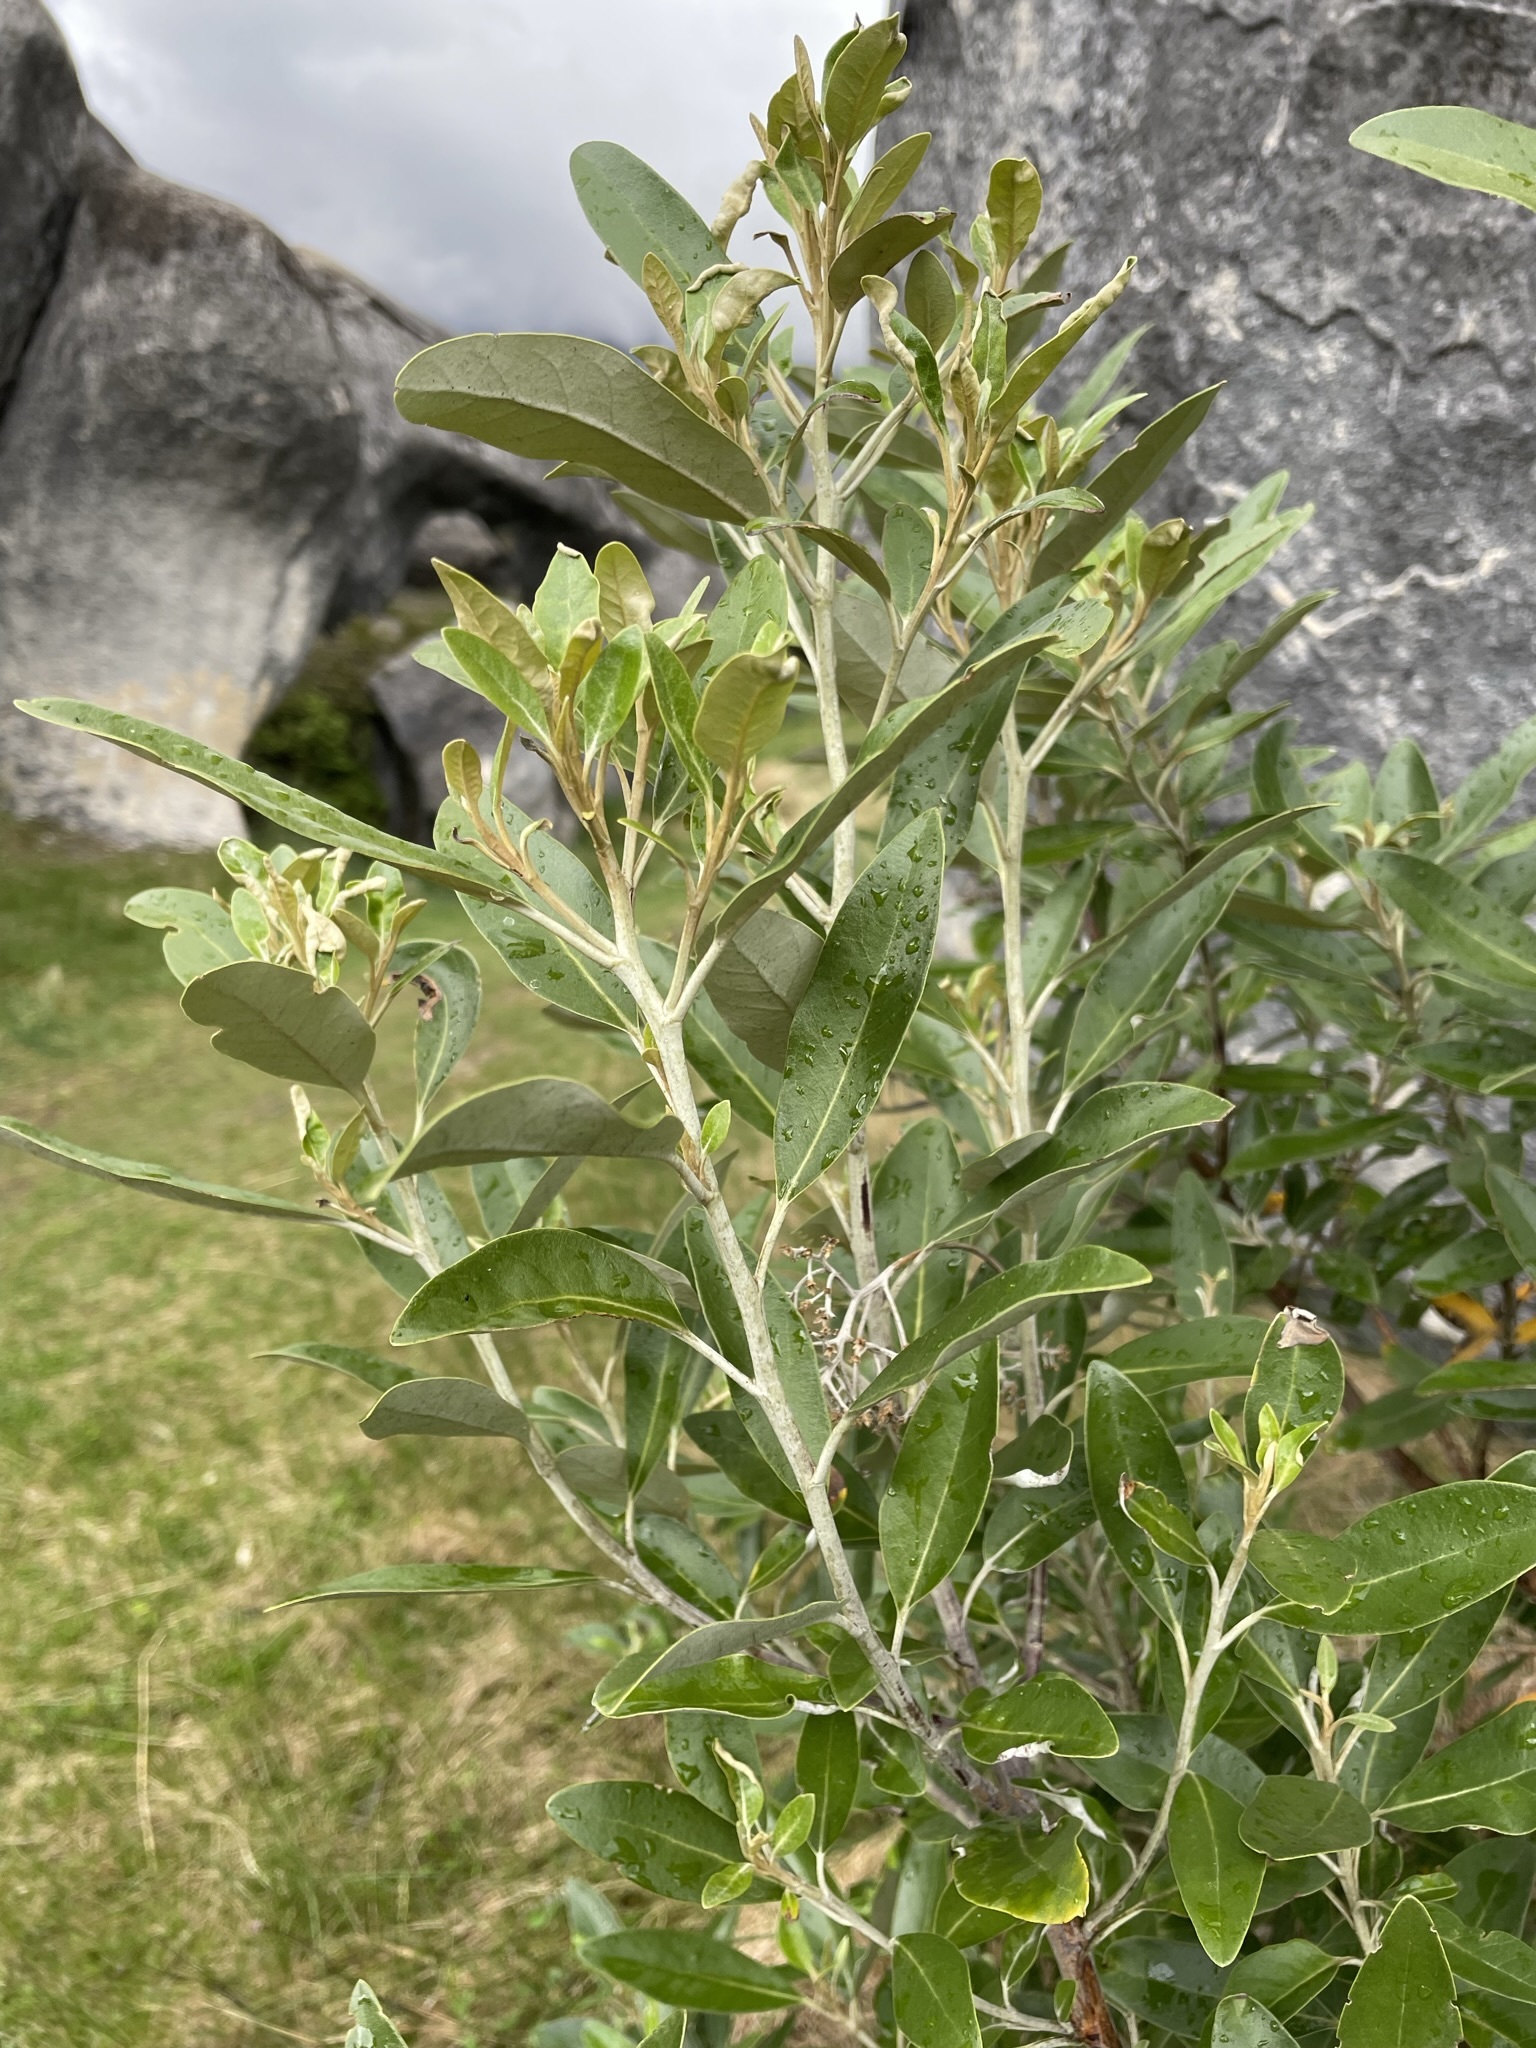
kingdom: Plantae
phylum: Tracheophyta
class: Magnoliopsida
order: Asterales
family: Asteraceae
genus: Olearia
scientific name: Olearia avicenniifolia
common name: Mangrove-leaf daisybush
